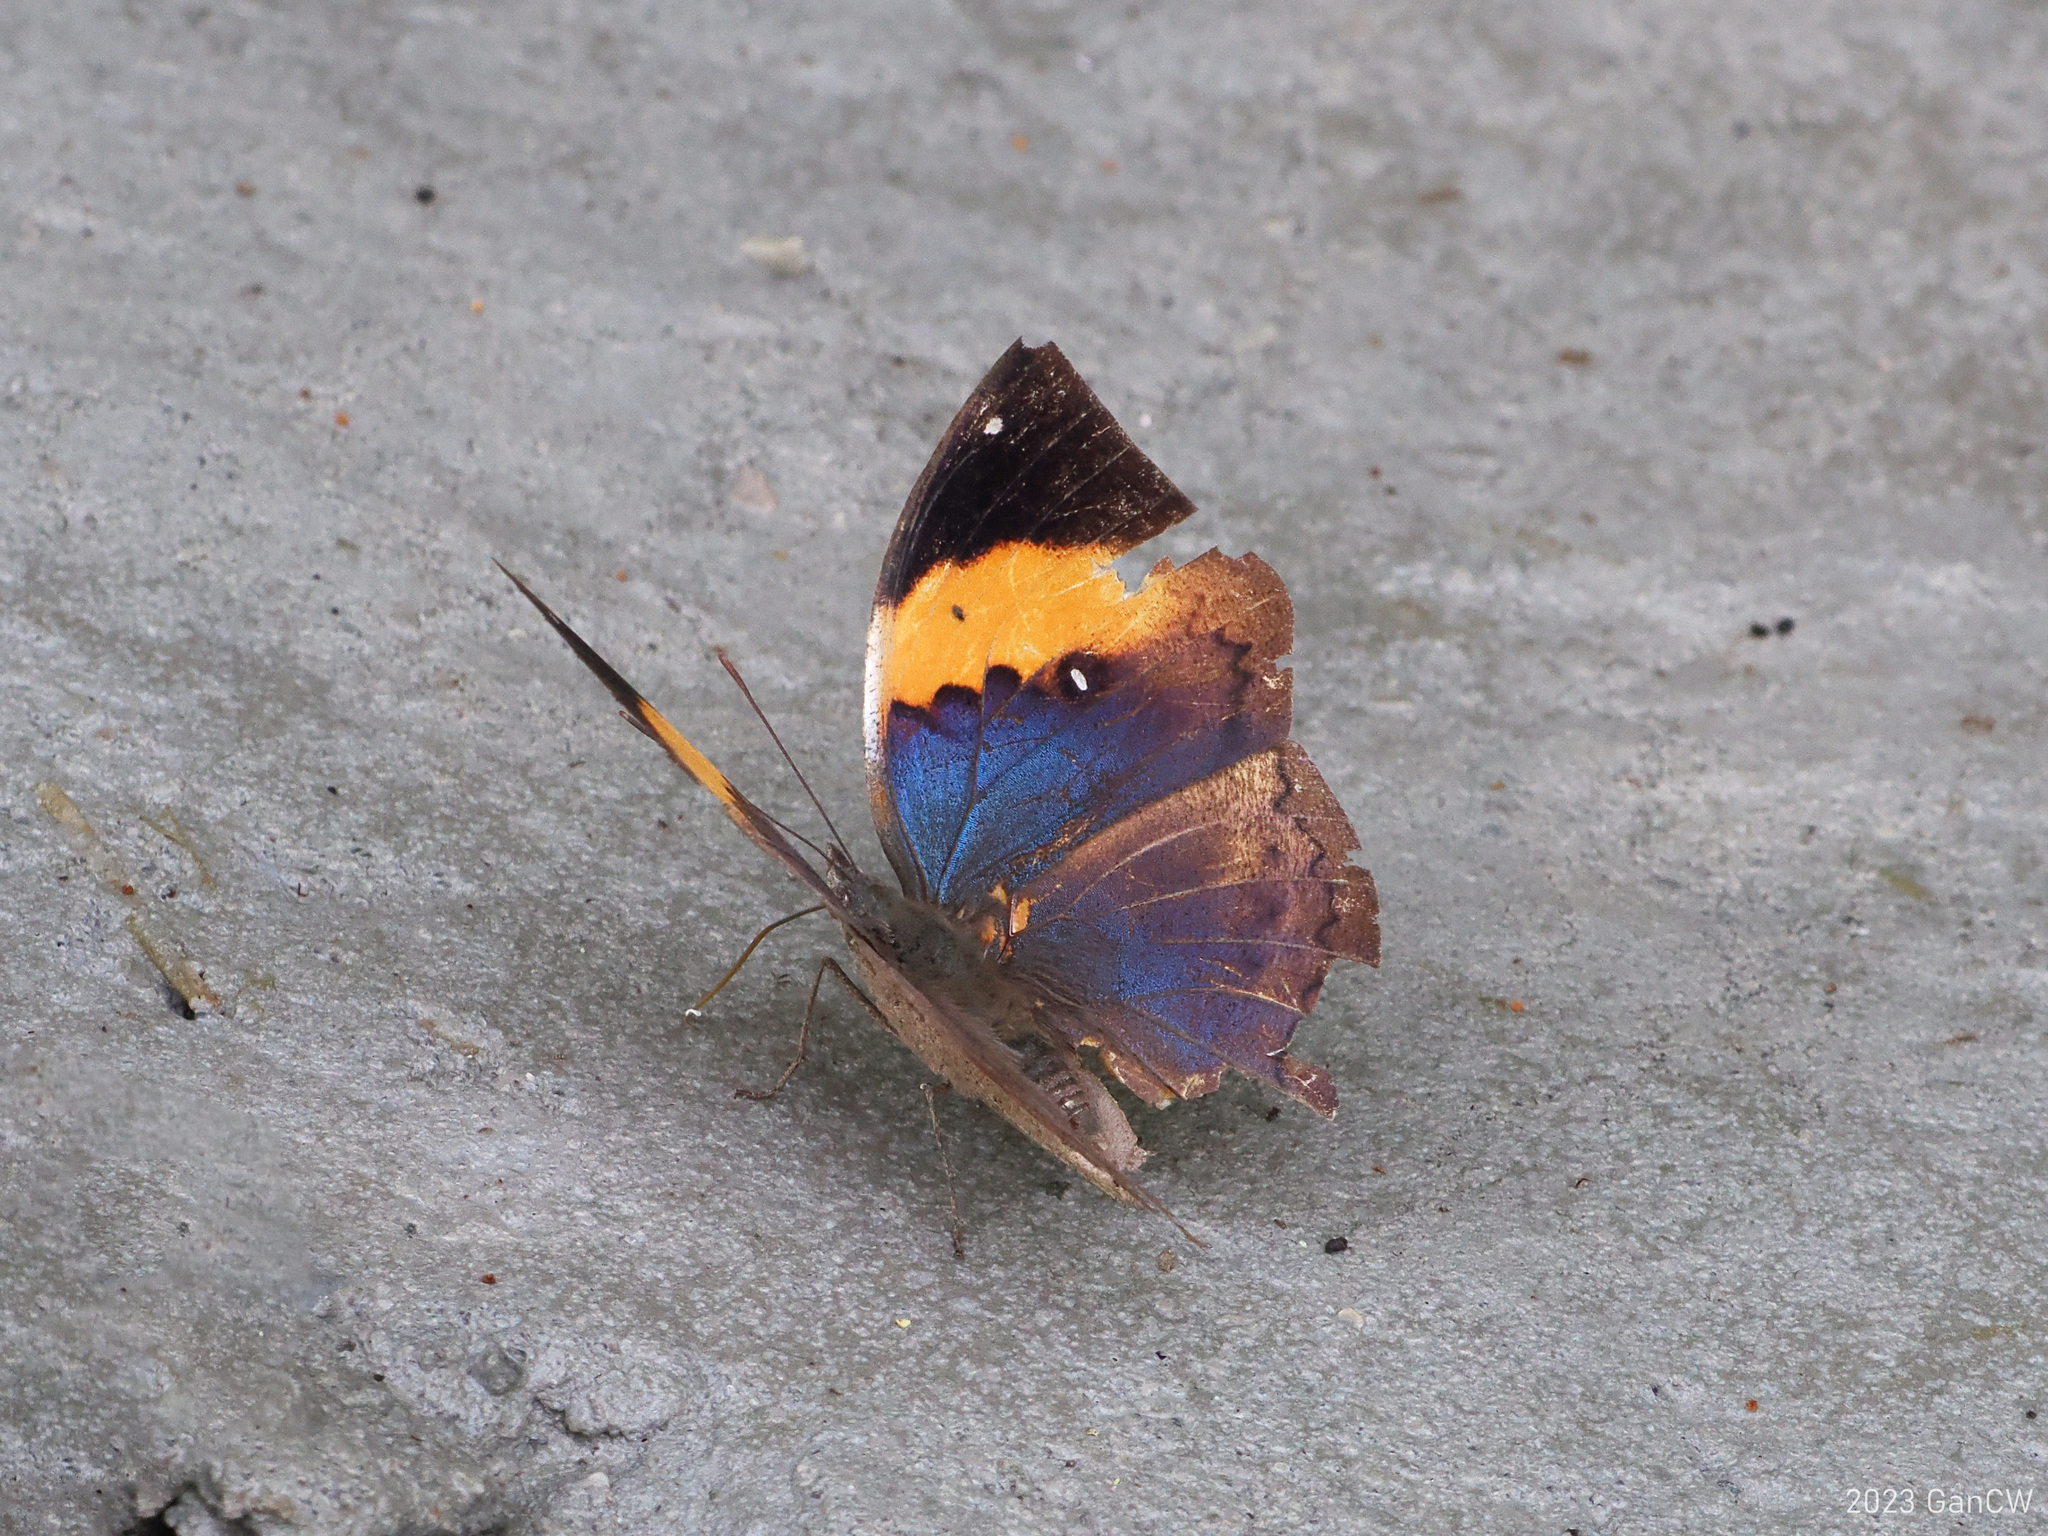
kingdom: Animalia
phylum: Arthropoda
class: Insecta
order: Lepidoptera
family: Nymphalidae
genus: Kallima
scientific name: Kallima inachus
